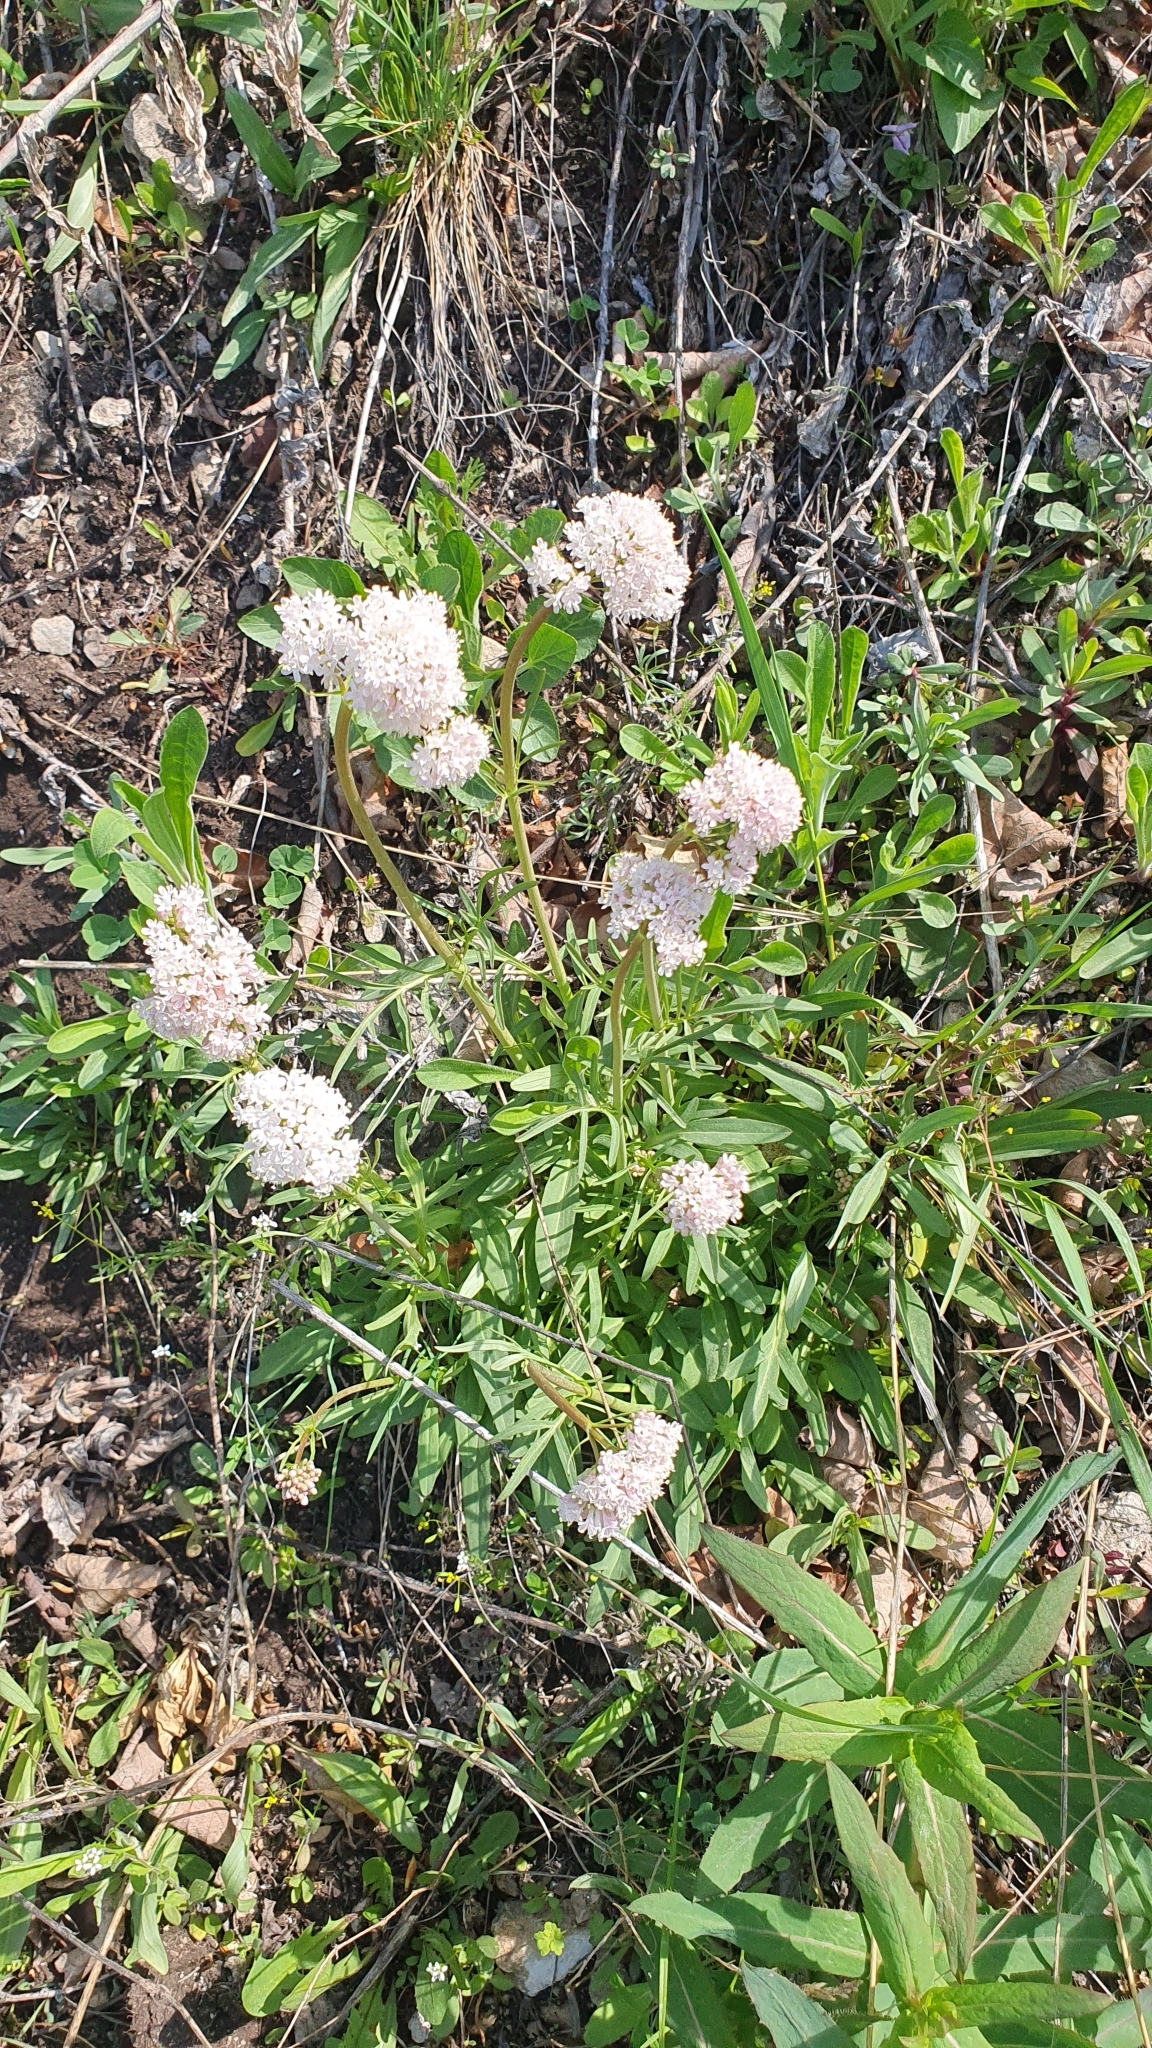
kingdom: Plantae
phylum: Tracheophyta
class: Magnoliopsida
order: Dipsacales
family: Caprifoliaceae
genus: Valeriana
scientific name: Valeriana tuberosa
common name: Tuberous valerian
